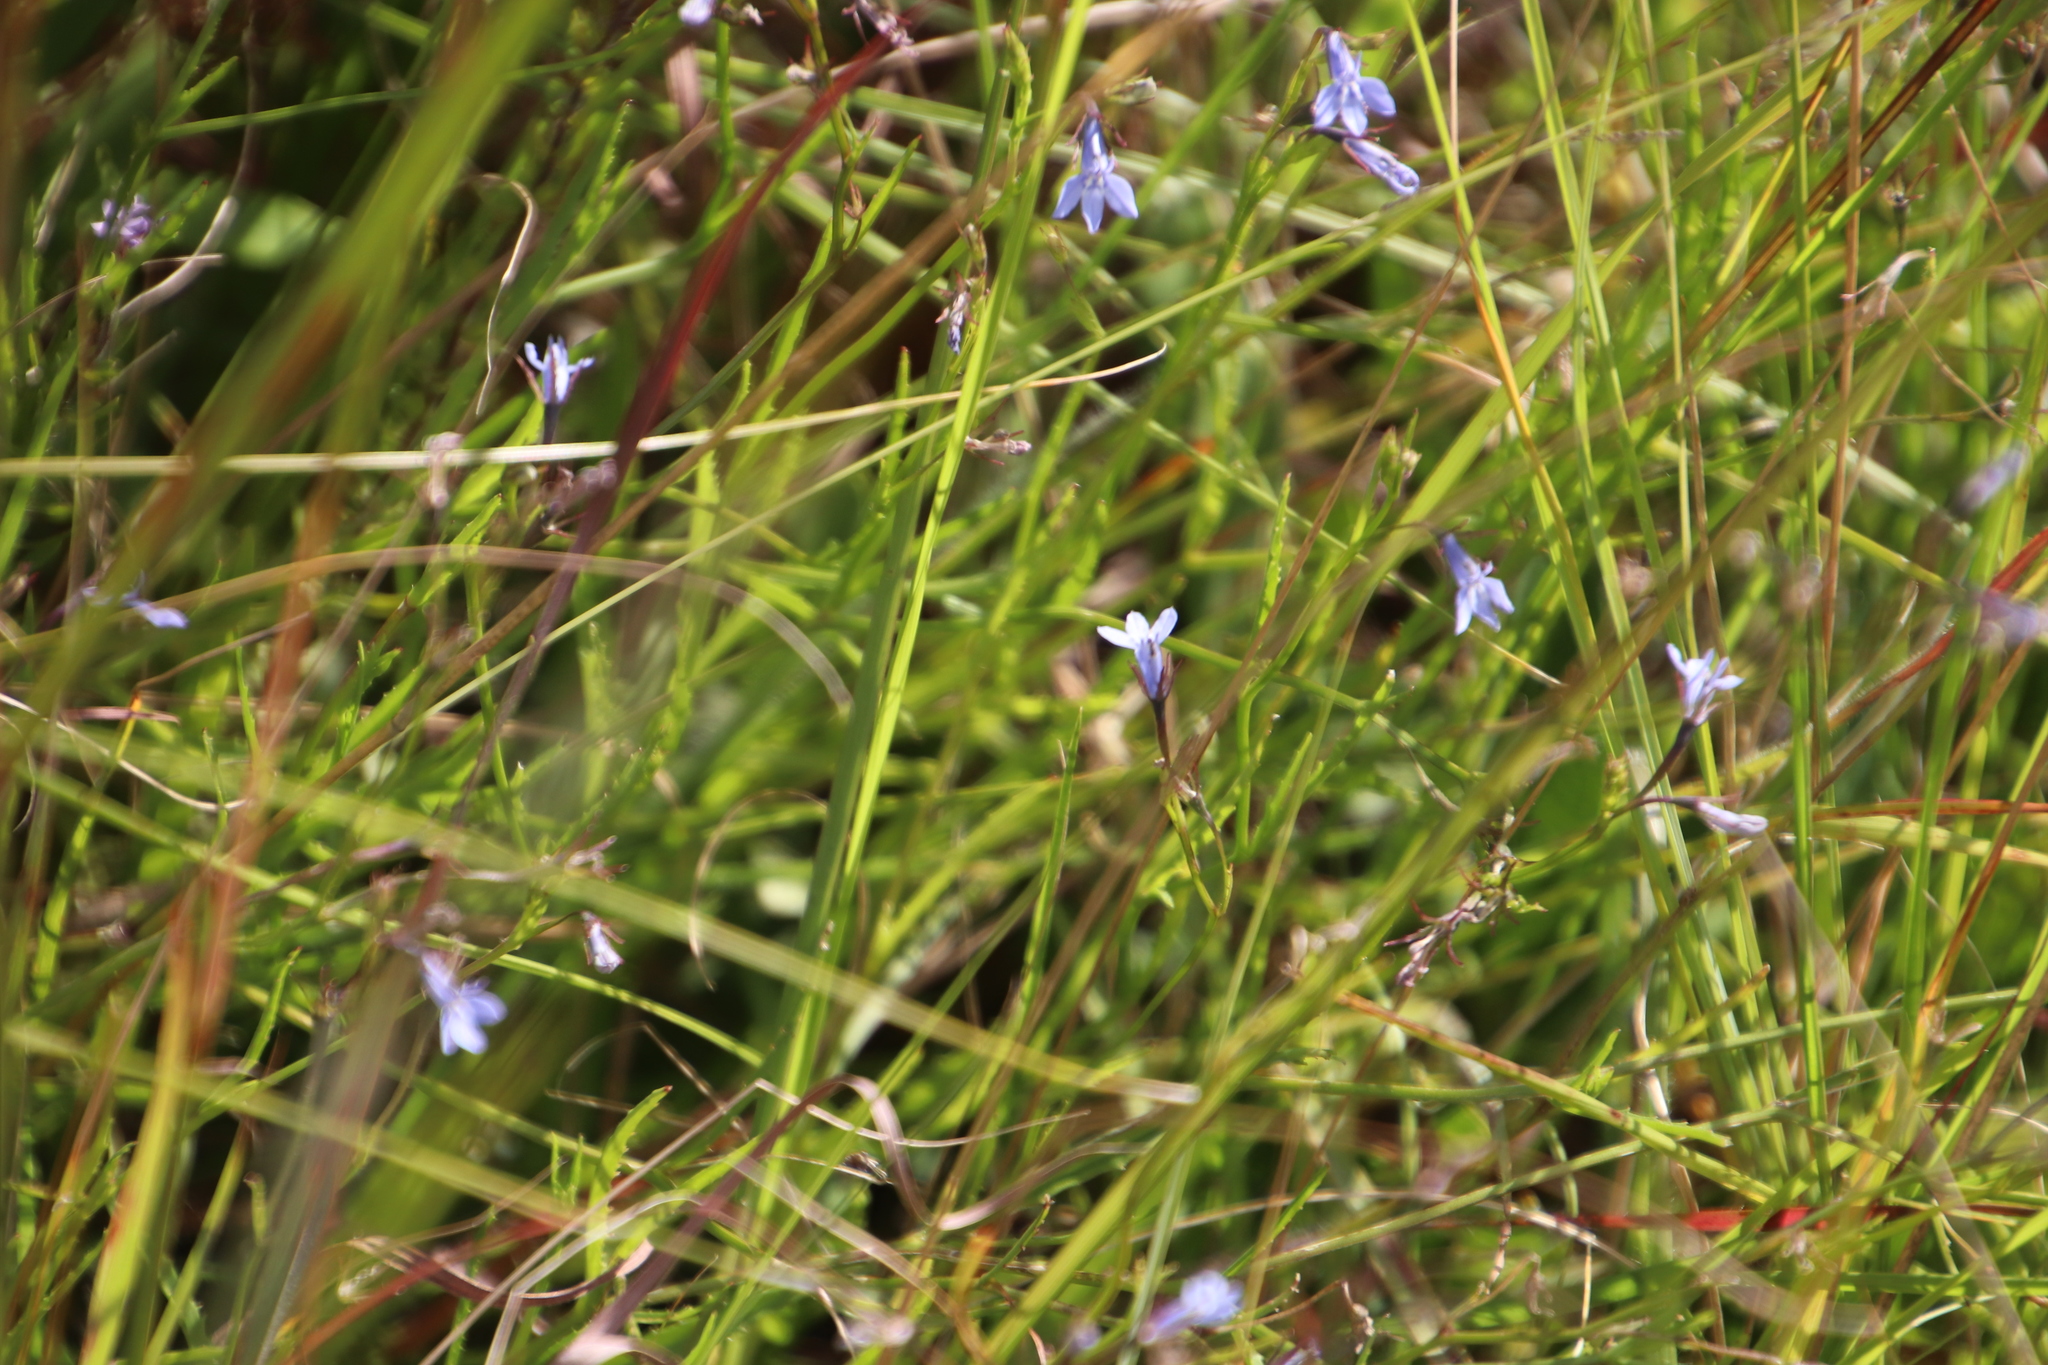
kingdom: Plantae
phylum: Tracheophyta
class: Magnoliopsida
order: Asterales
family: Campanulaceae
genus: Lobelia
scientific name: Lobelia flaccida
